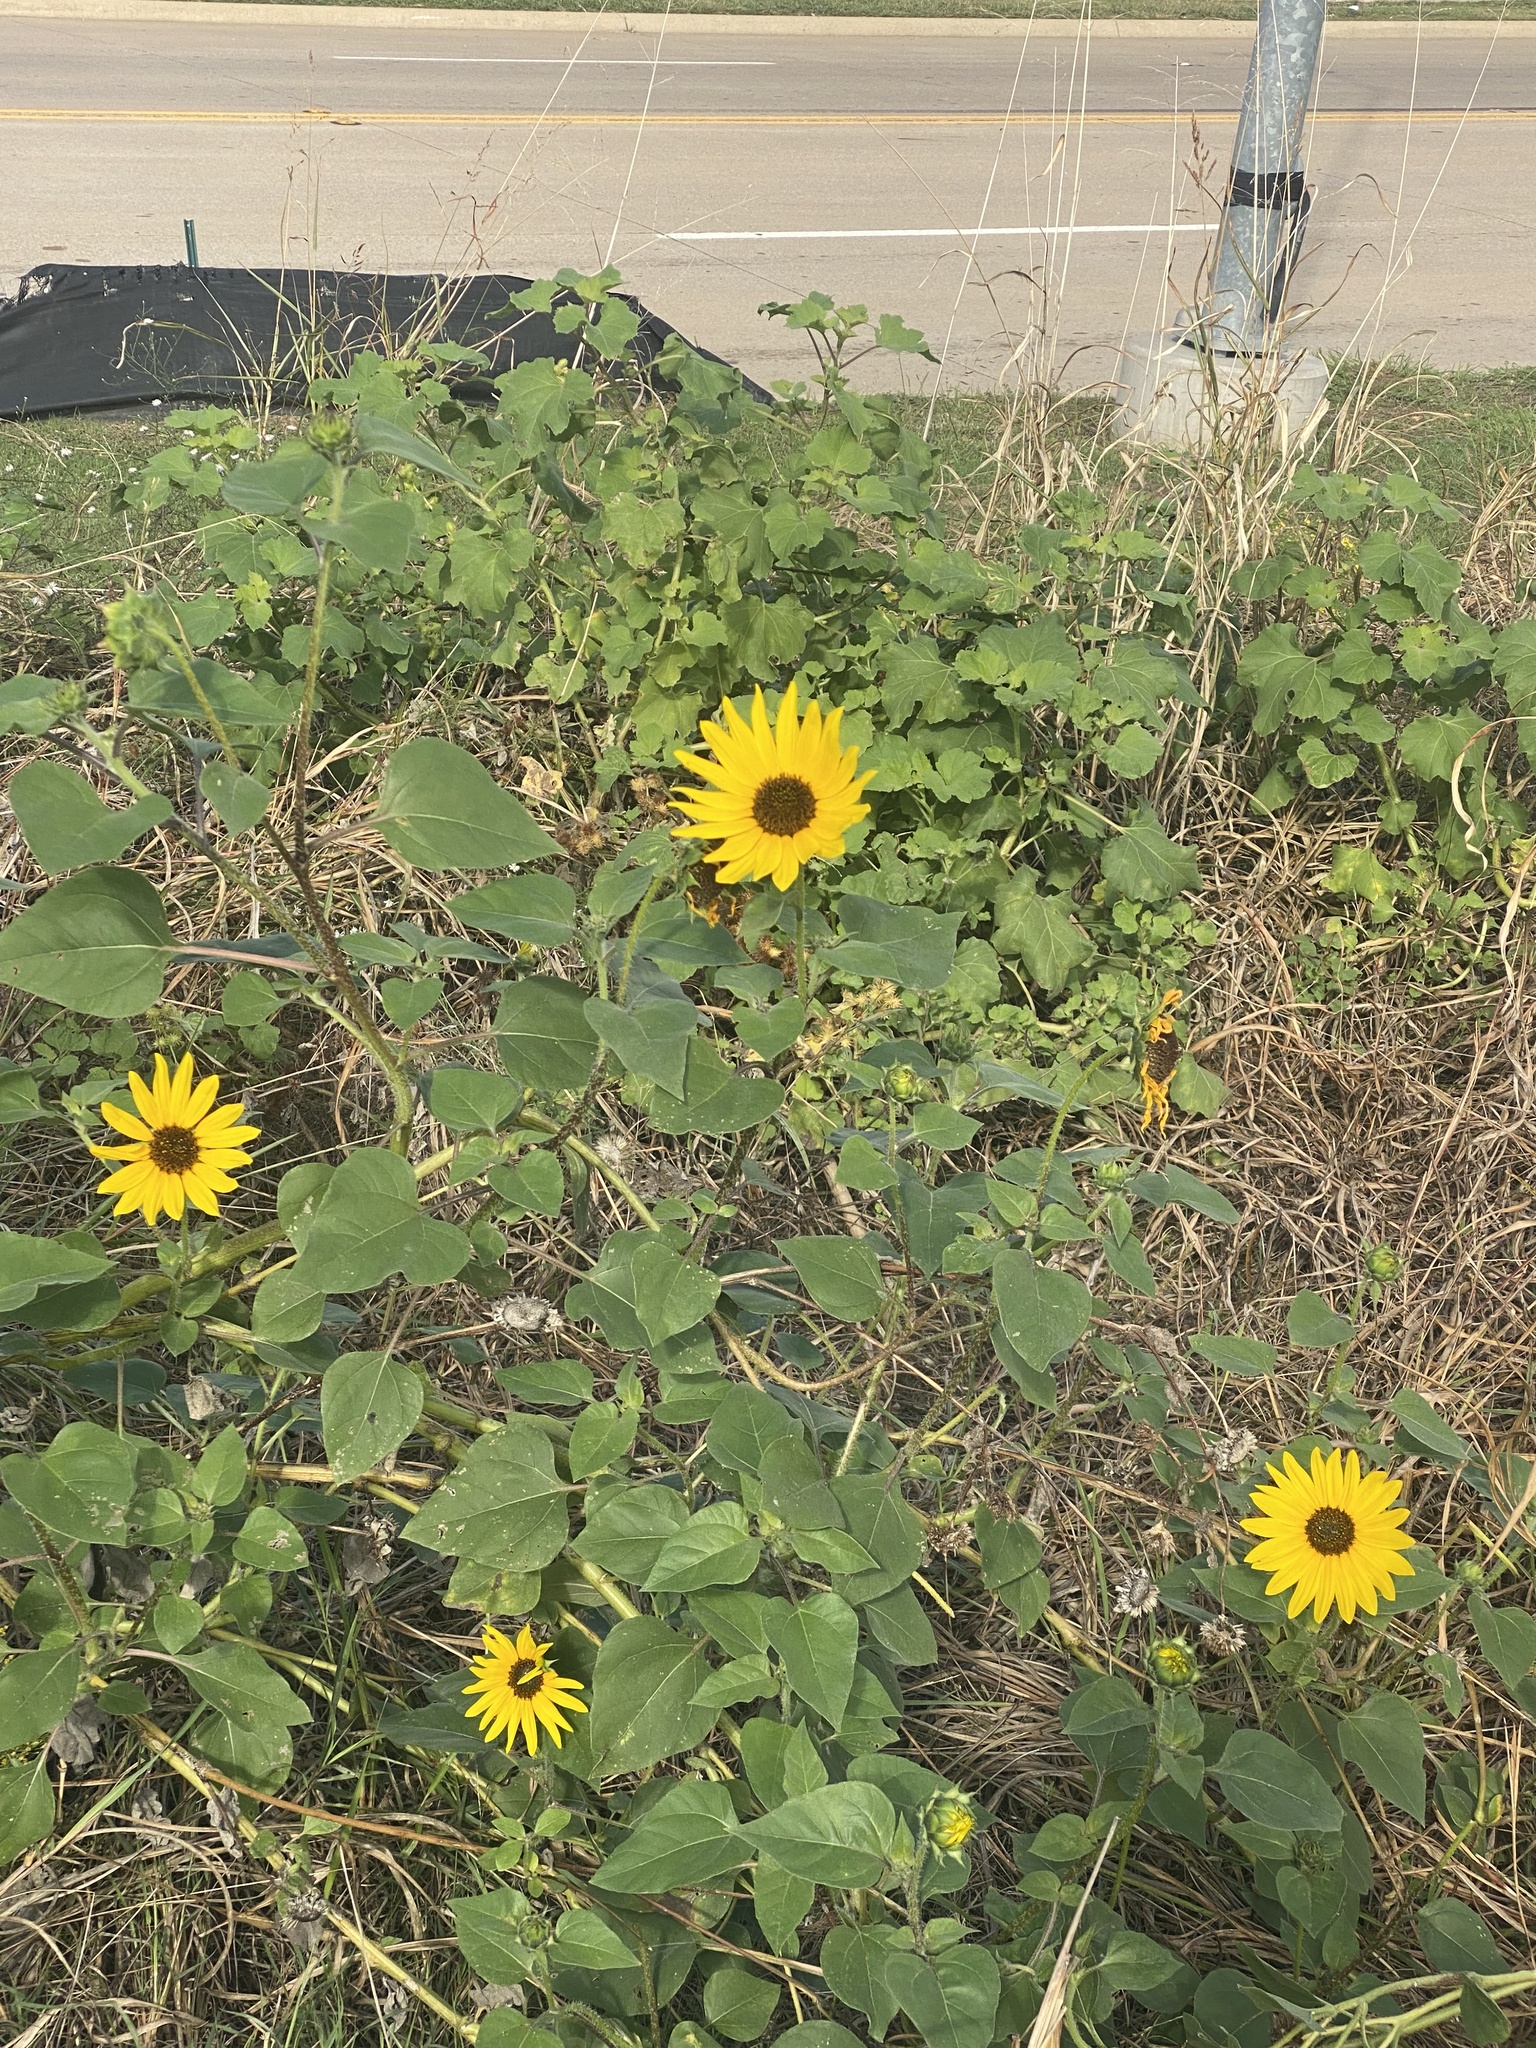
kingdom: Plantae
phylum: Tracheophyta
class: Magnoliopsida
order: Asterales
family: Asteraceae
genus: Helianthus
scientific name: Helianthus annuus
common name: Sunflower
